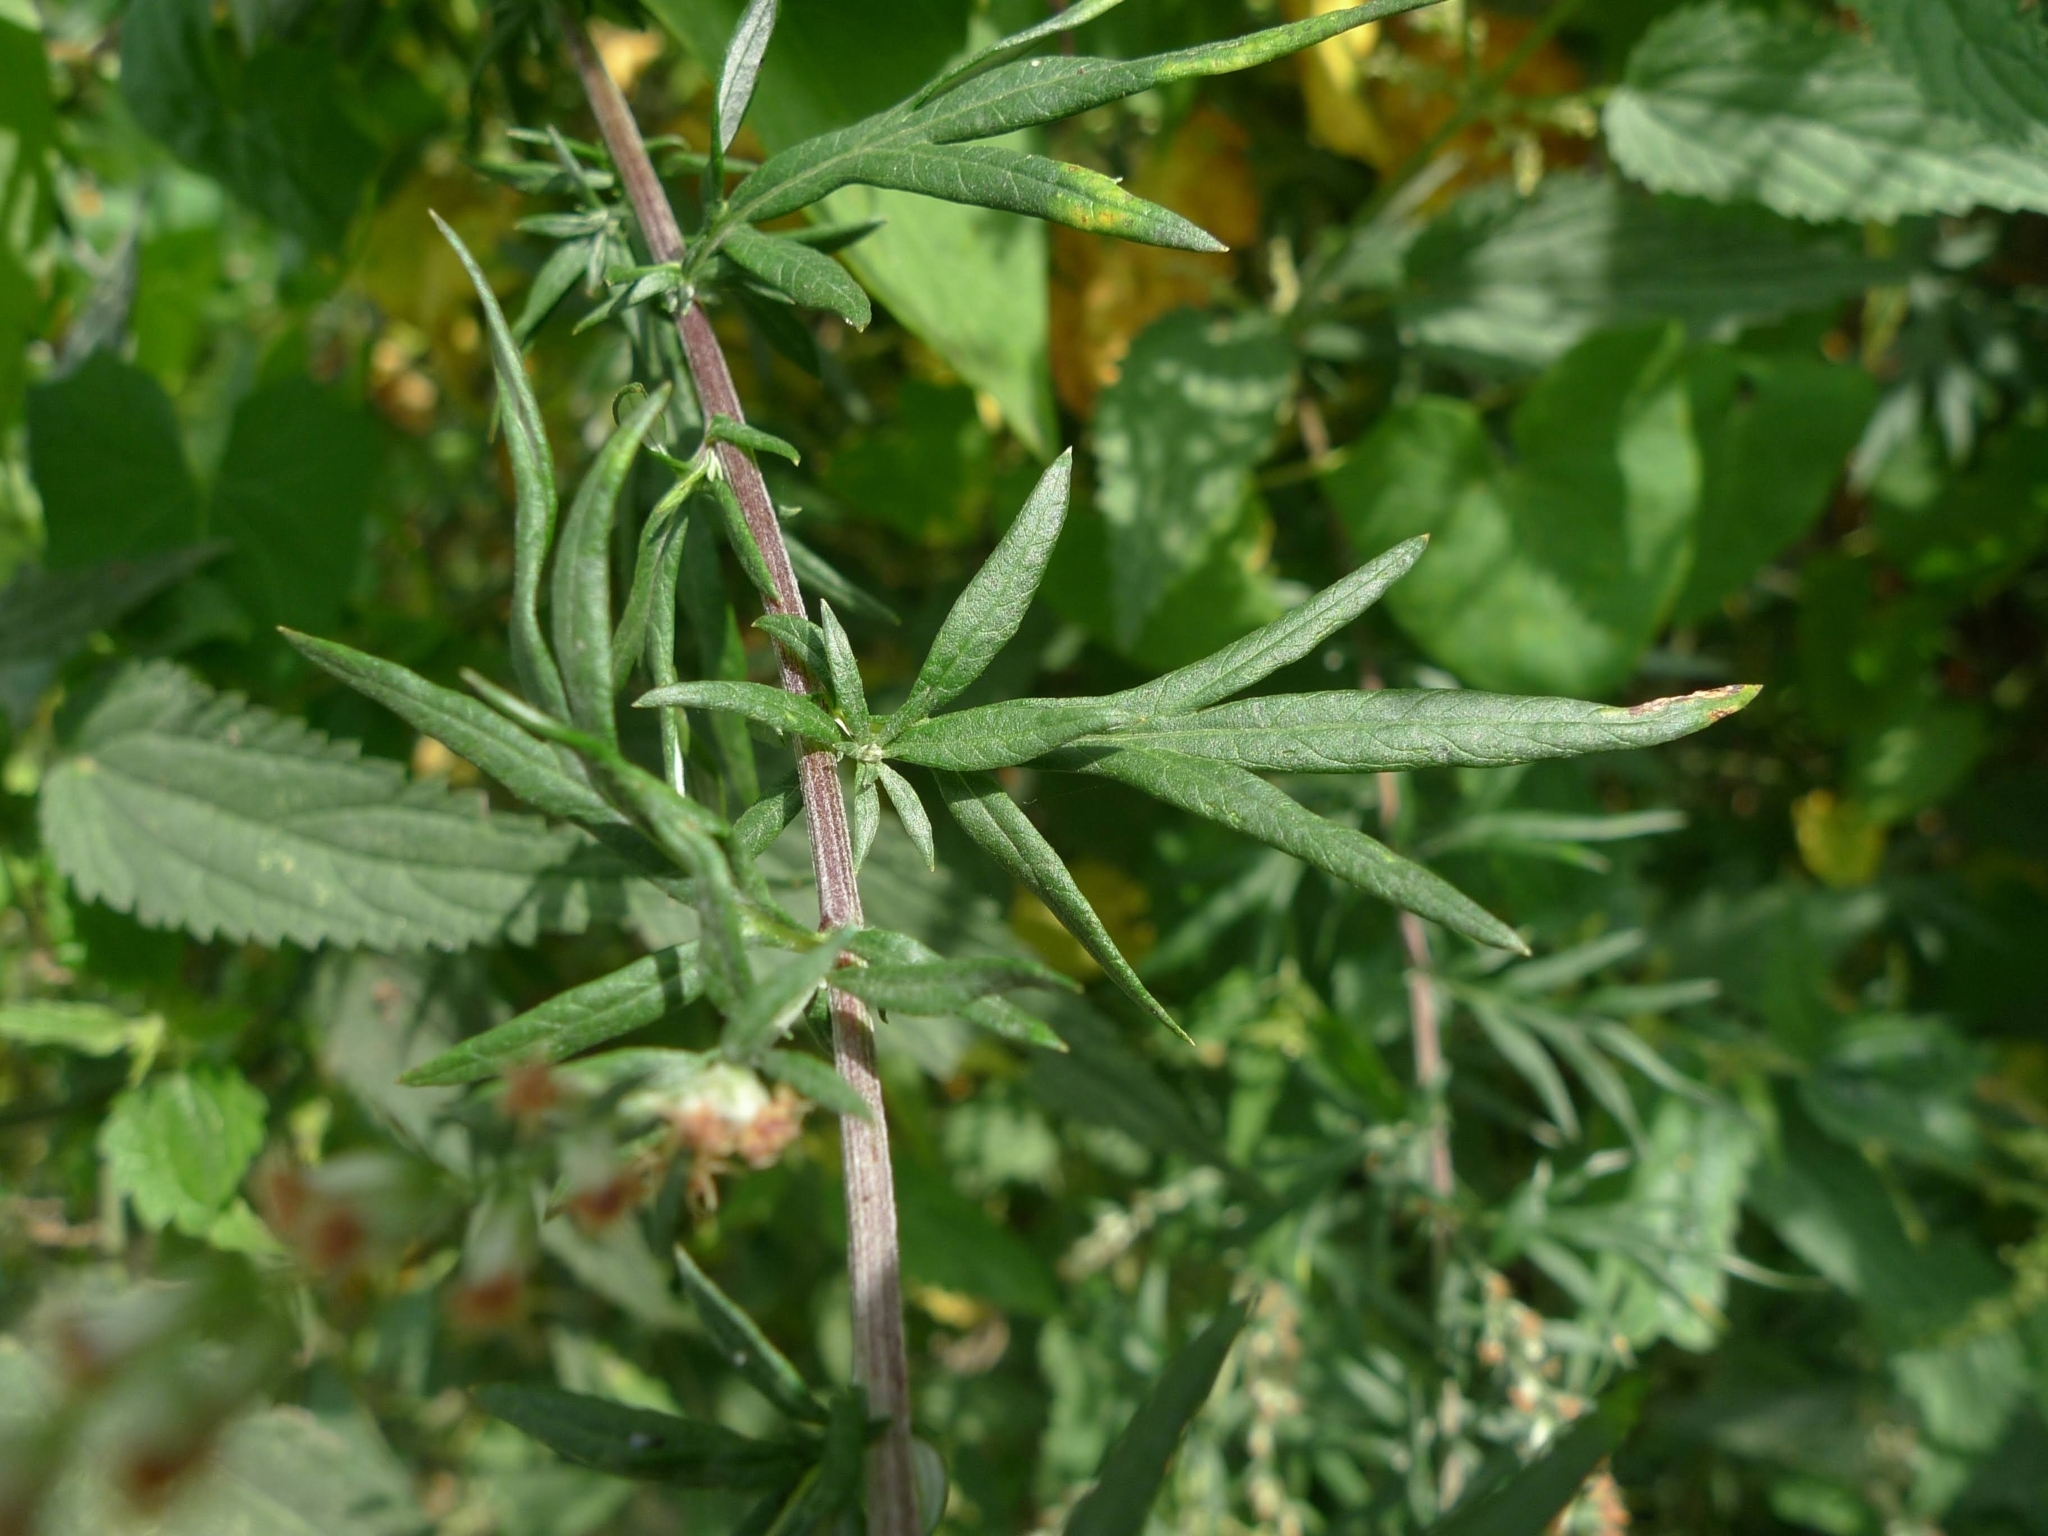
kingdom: Plantae
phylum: Tracheophyta
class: Magnoliopsida
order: Asterales
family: Asteraceae
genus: Artemisia
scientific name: Artemisia vulgaris
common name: Mugwort
